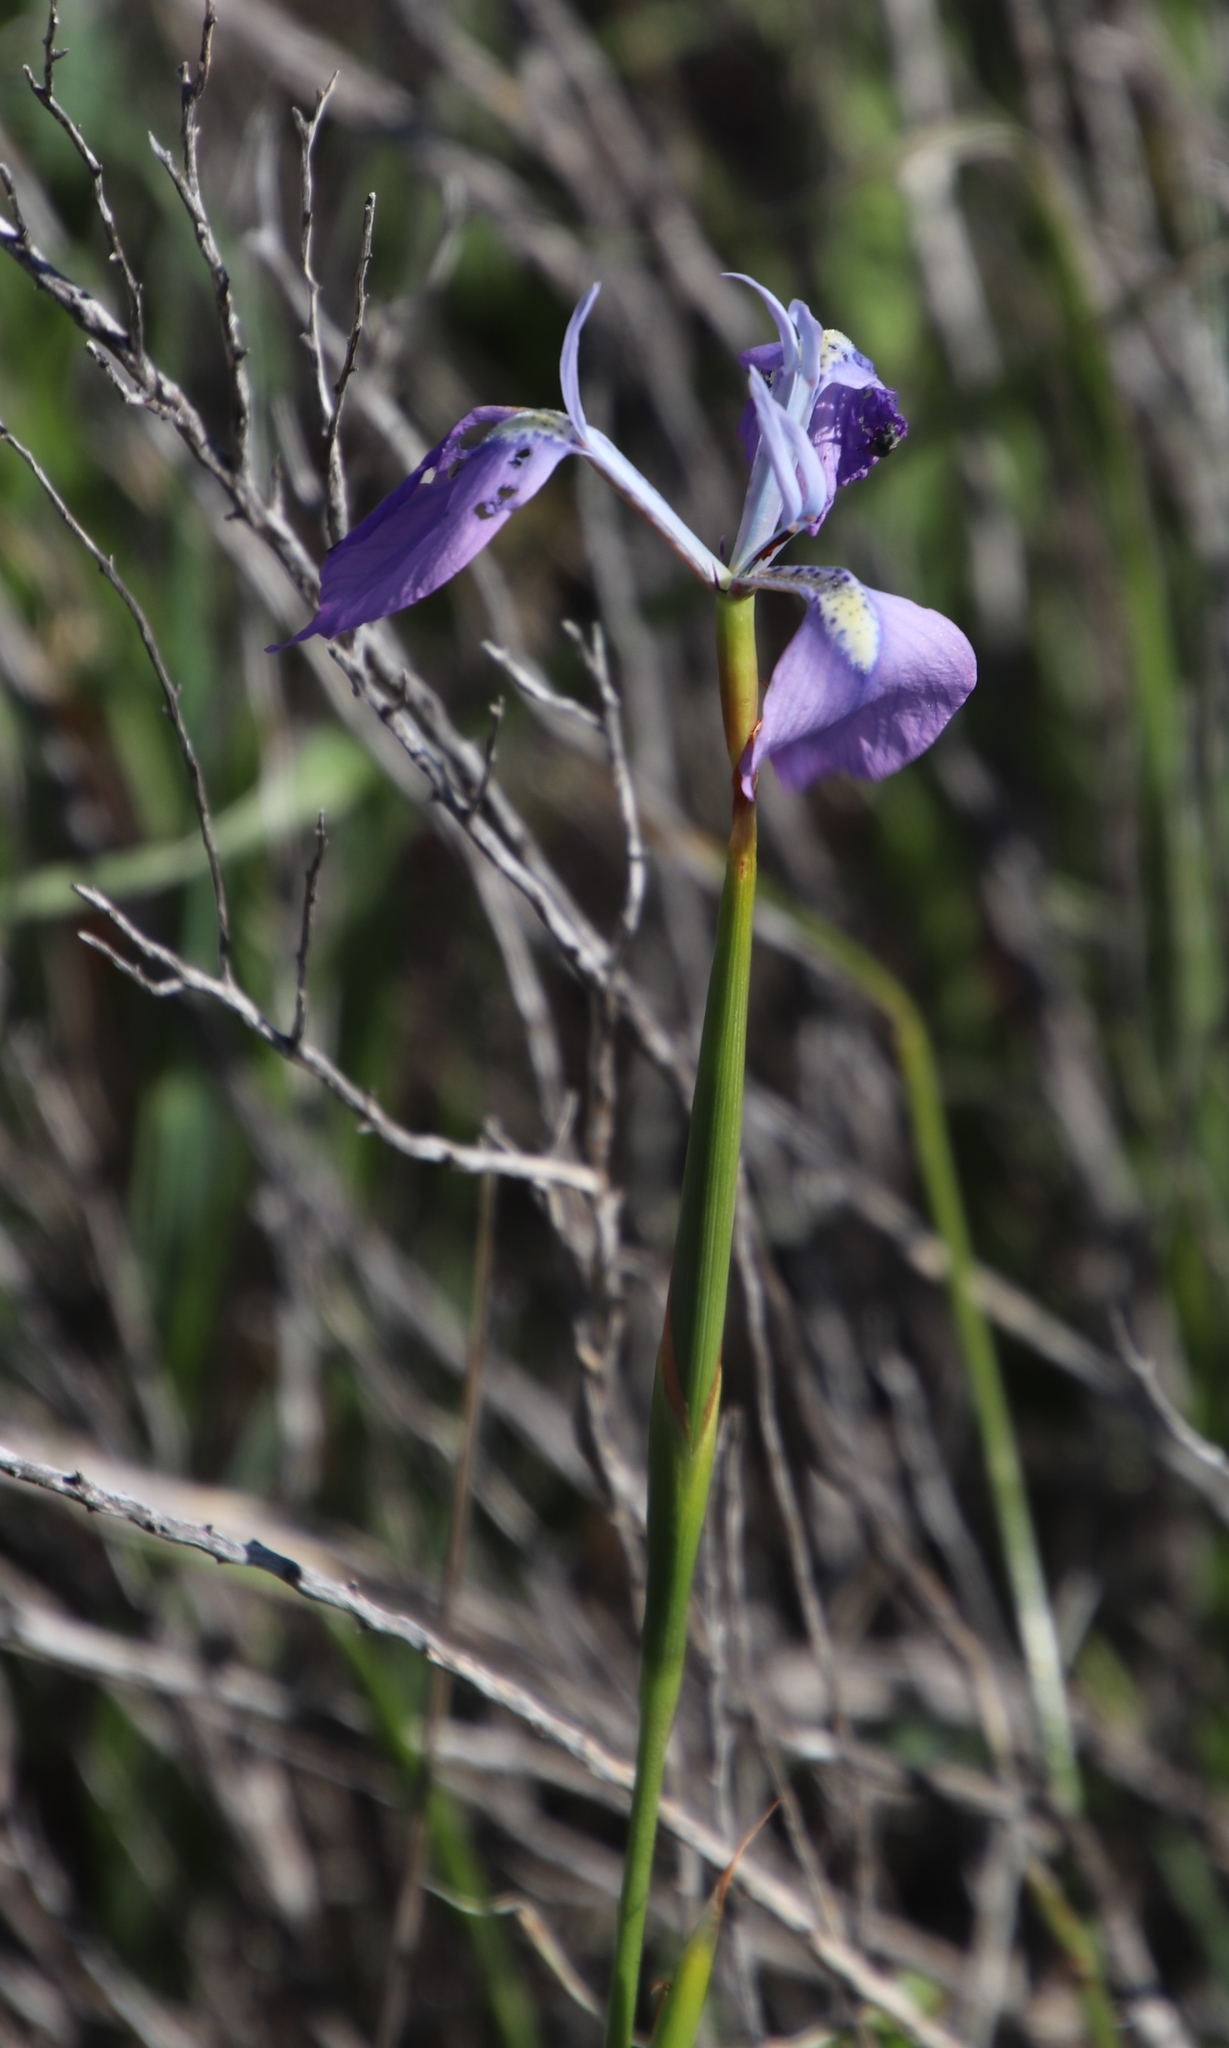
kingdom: Plantae
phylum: Tracheophyta
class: Liliopsida
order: Asparagales
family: Iridaceae
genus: Moraea
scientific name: Moraea tripetala
